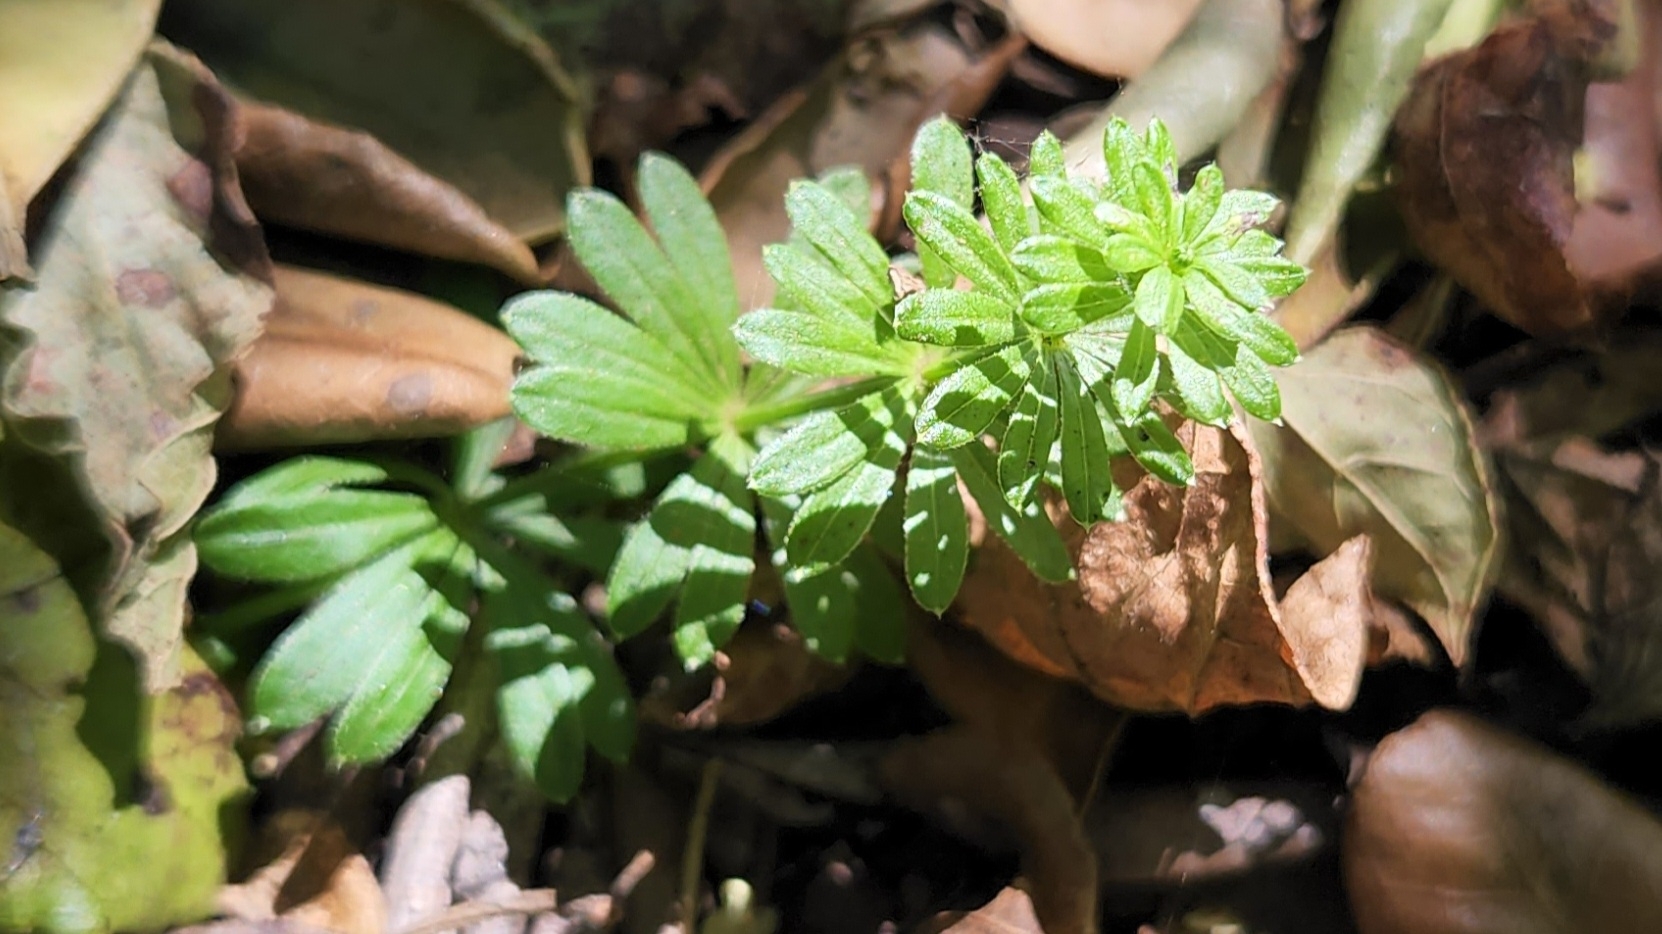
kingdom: Plantae
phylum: Tracheophyta
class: Magnoliopsida
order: Gentianales
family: Rubiaceae
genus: Galium
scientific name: Galium mexicanum
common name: Mexican bedstraw
